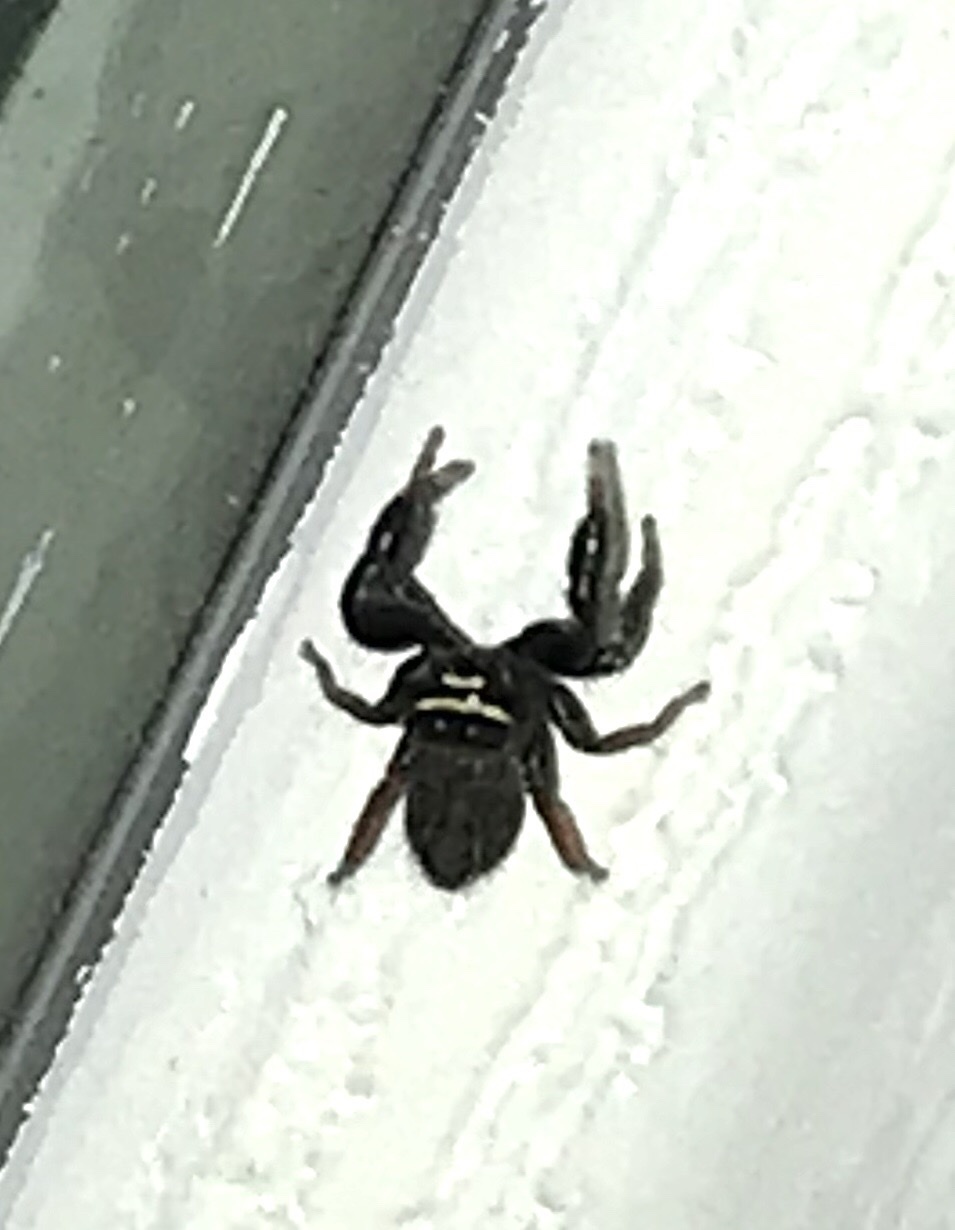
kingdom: Animalia
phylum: Arthropoda
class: Arachnida
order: Araneae
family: Salticidae
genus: Metacyrba
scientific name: Metacyrba taeniola
